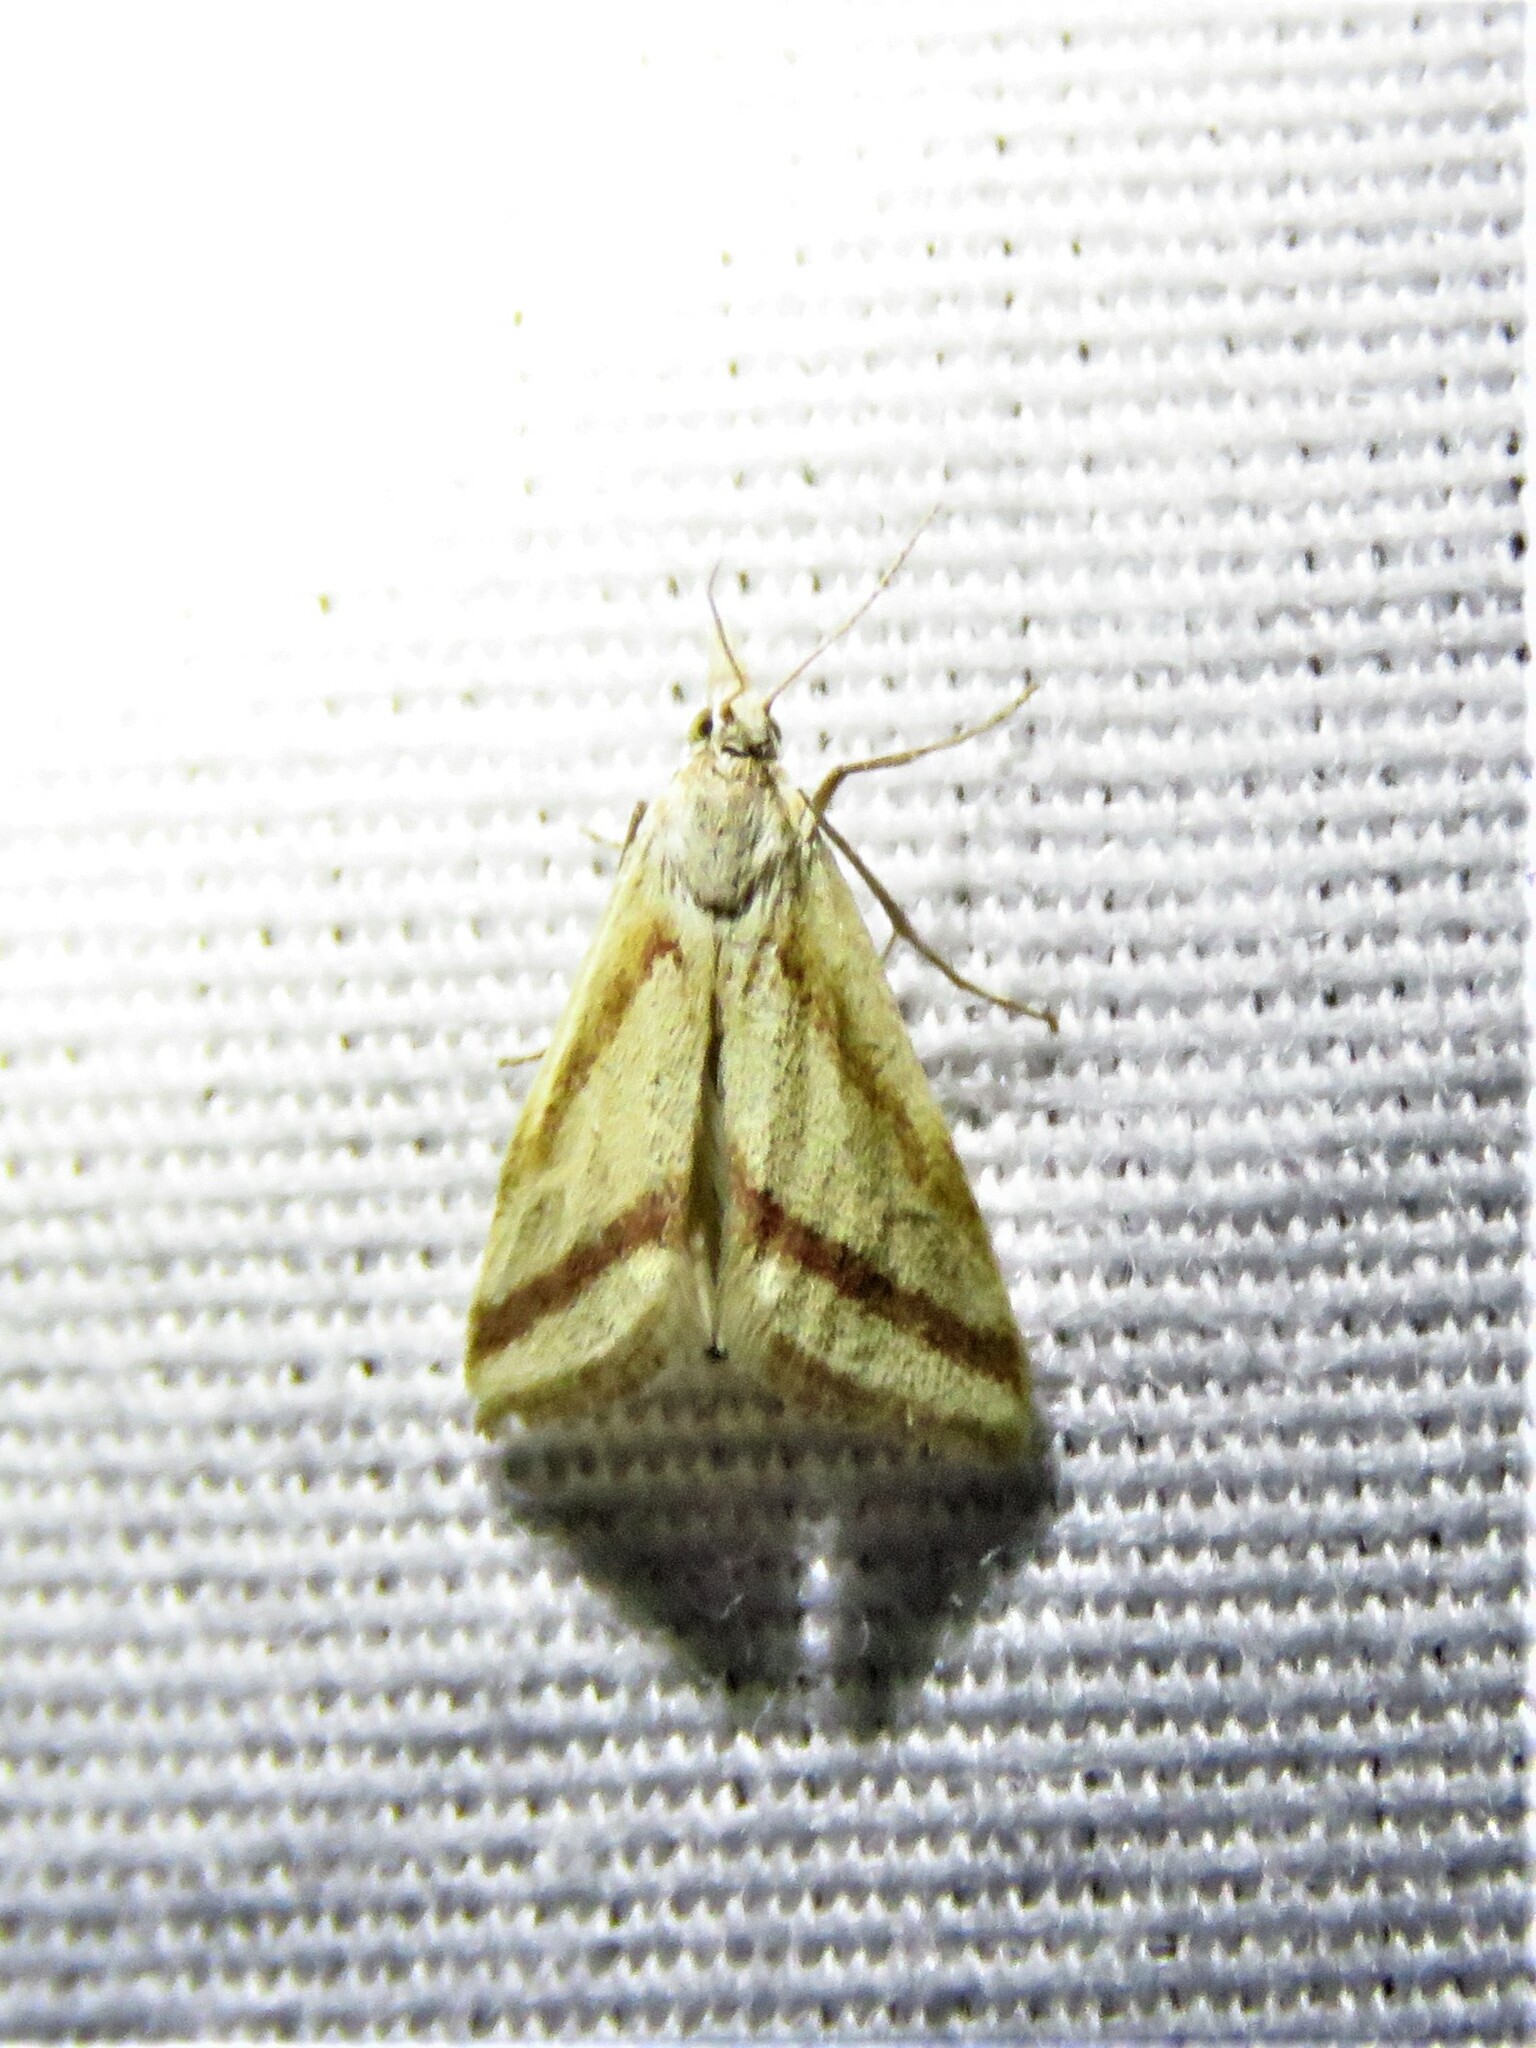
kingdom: Animalia
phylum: Arthropoda
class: Insecta
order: Lepidoptera
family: Crambidae
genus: Microtheoris
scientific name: Microtheoris vibicalis
